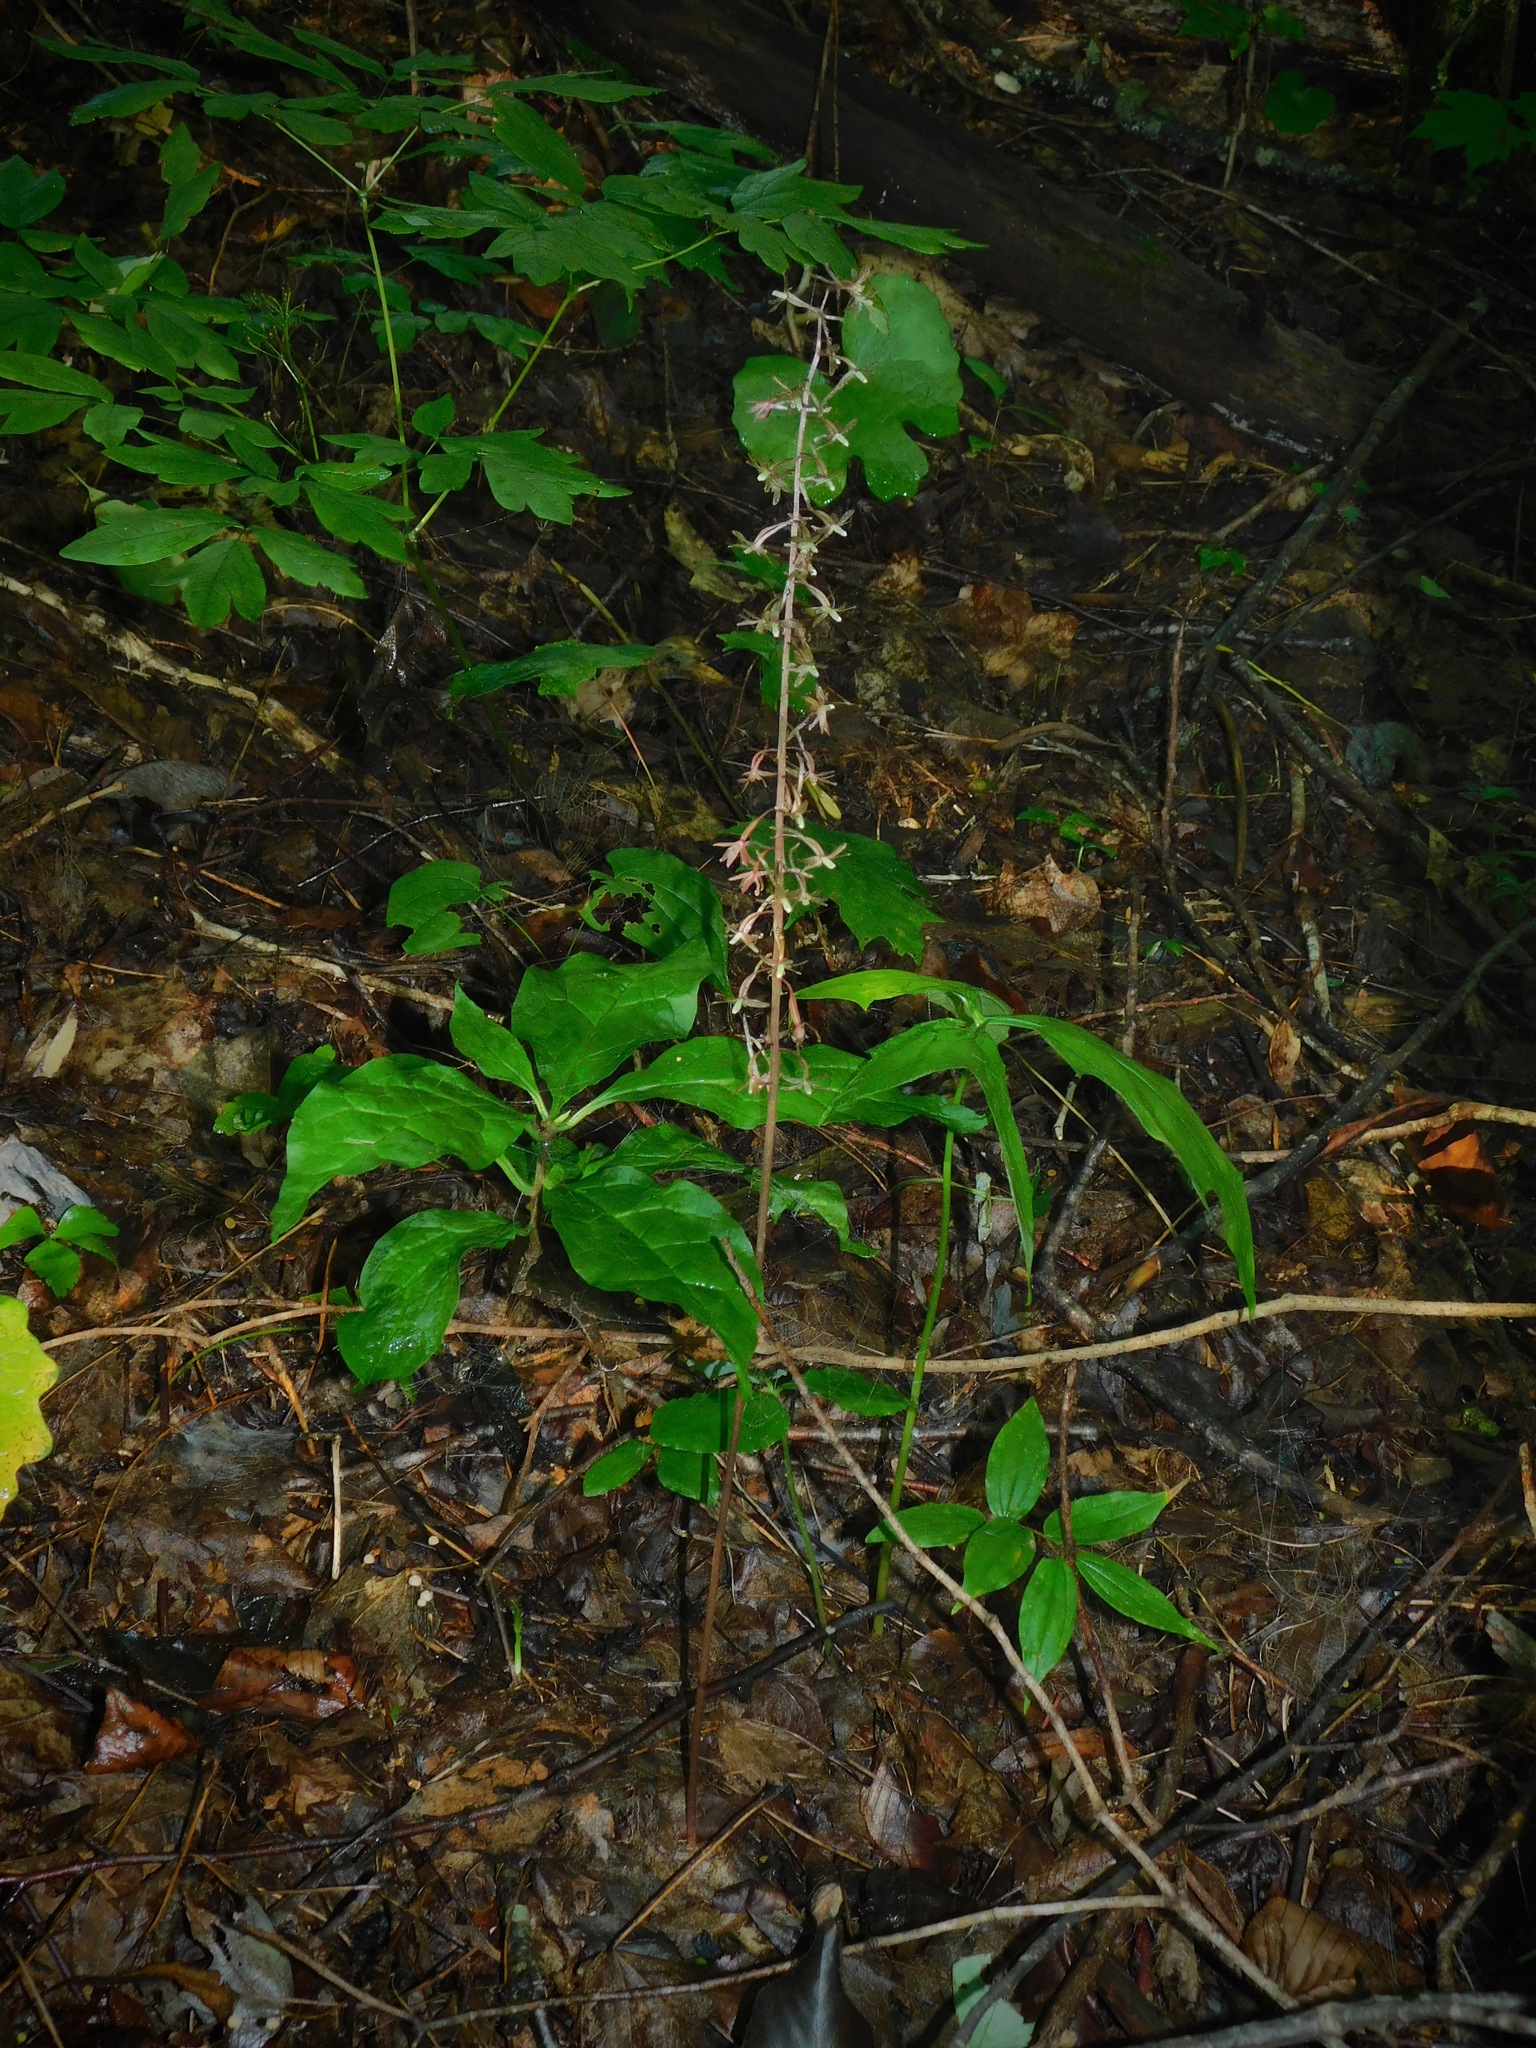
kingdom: Plantae
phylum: Tracheophyta
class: Liliopsida
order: Asparagales
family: Orchidaceae
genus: Tipularia
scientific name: Tipularia discolor
